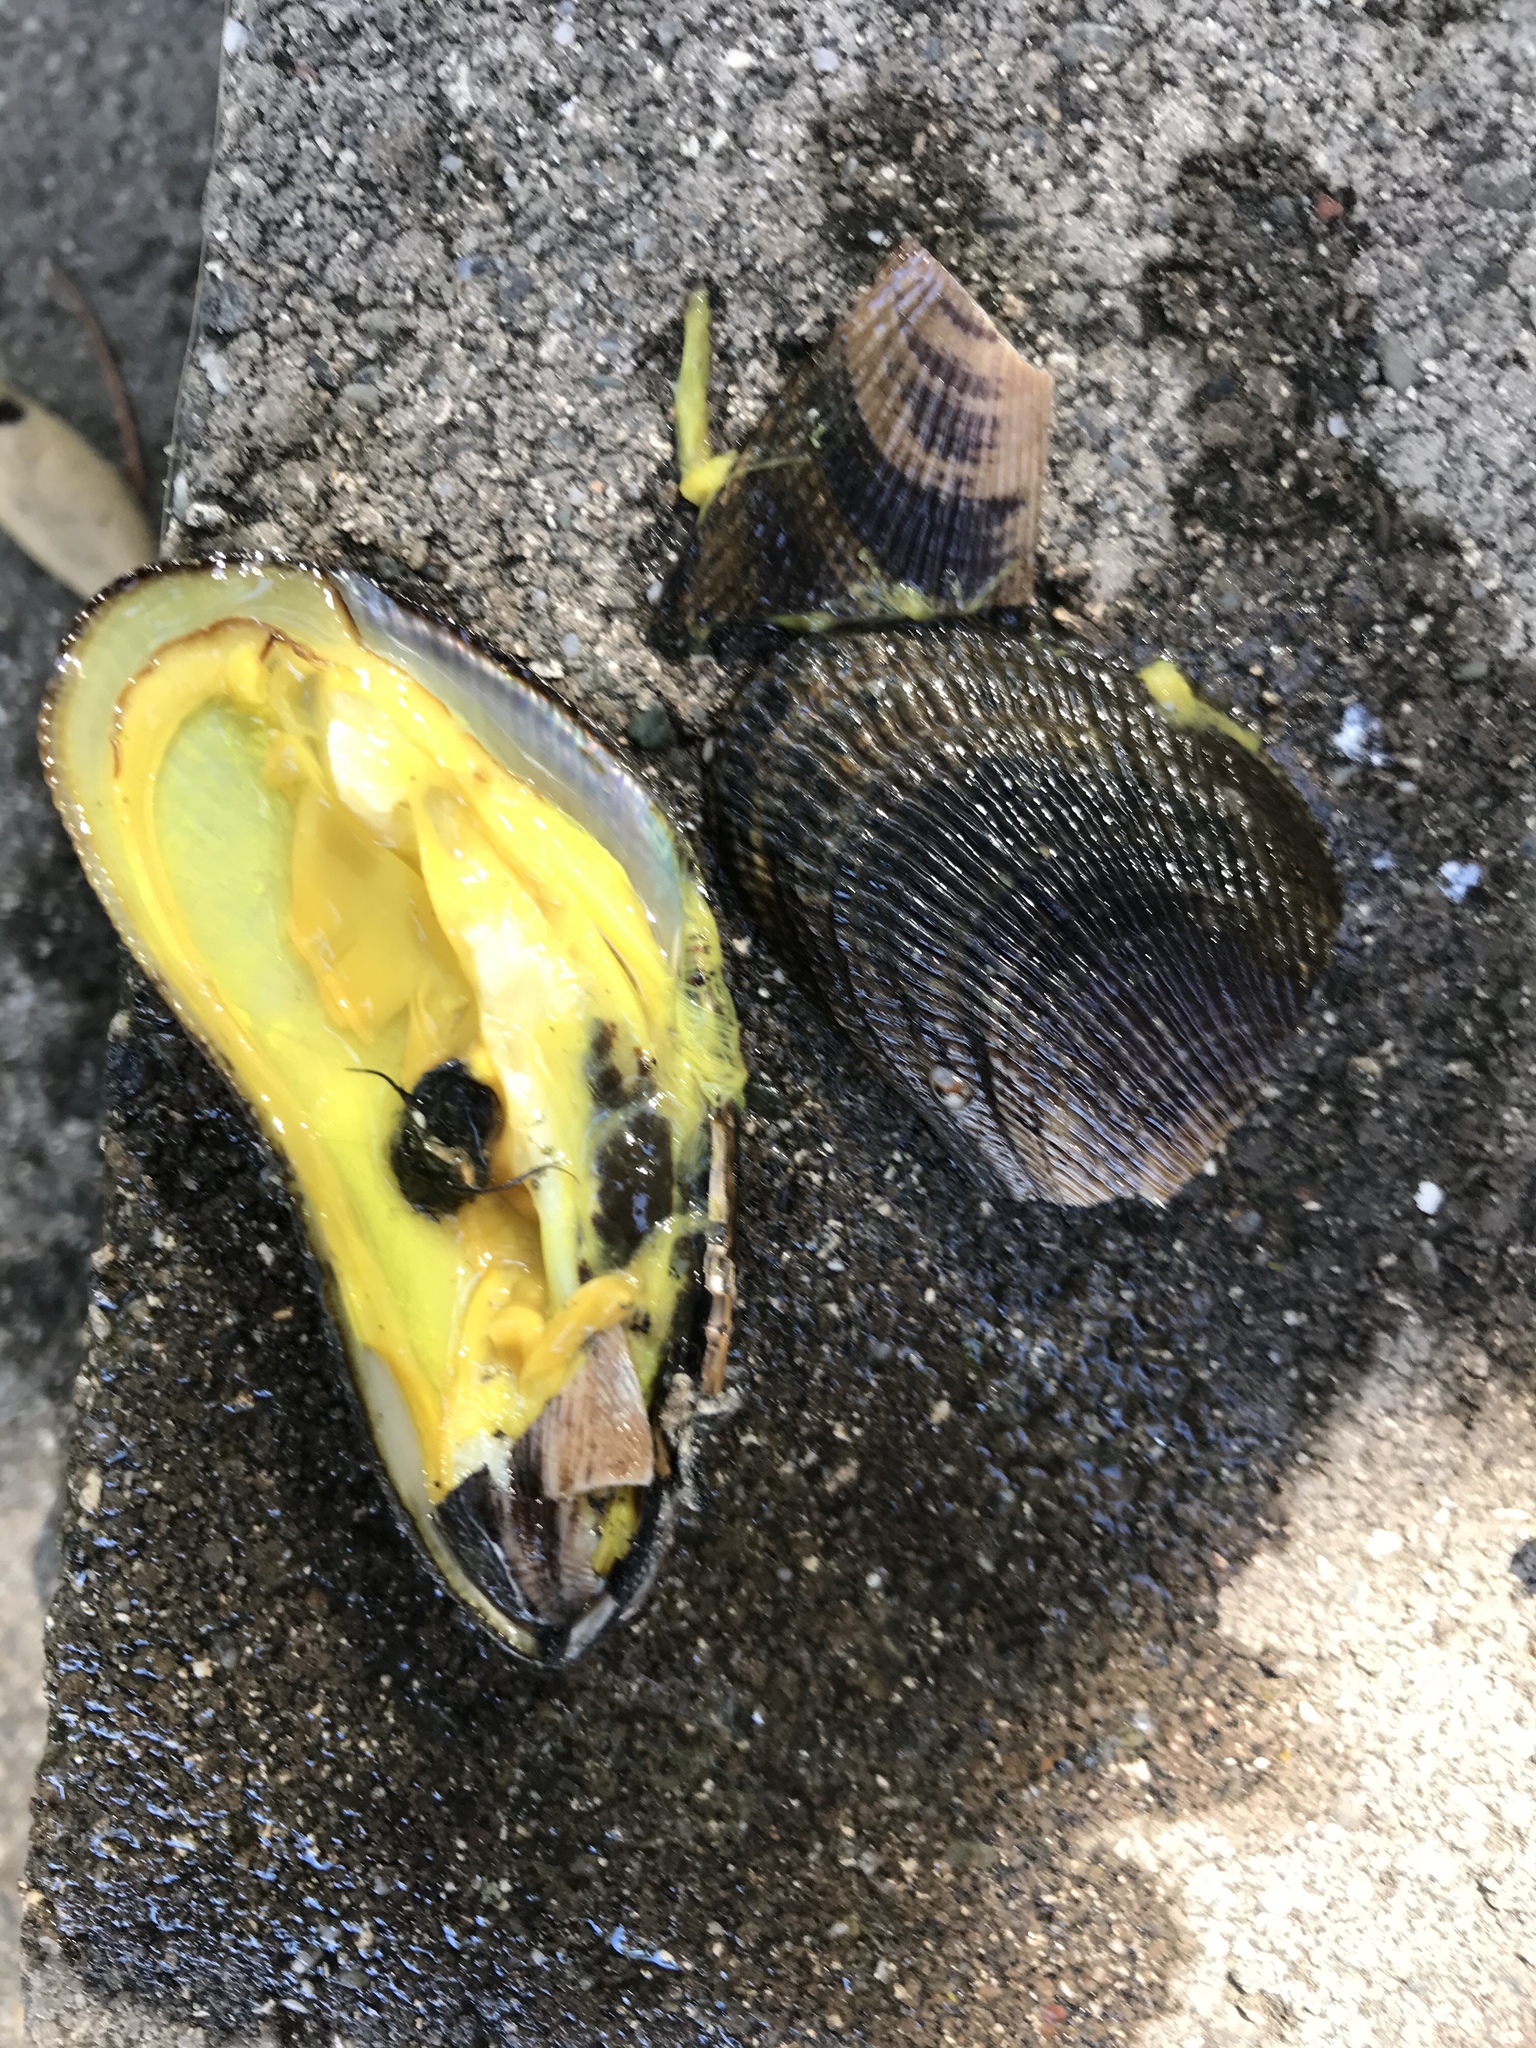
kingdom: Animalia
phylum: Mollusca
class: Bivalvia
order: Mytilida
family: Mytilidae
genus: Geukensia
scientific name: Geukensia demissa
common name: Ribbed mussel
